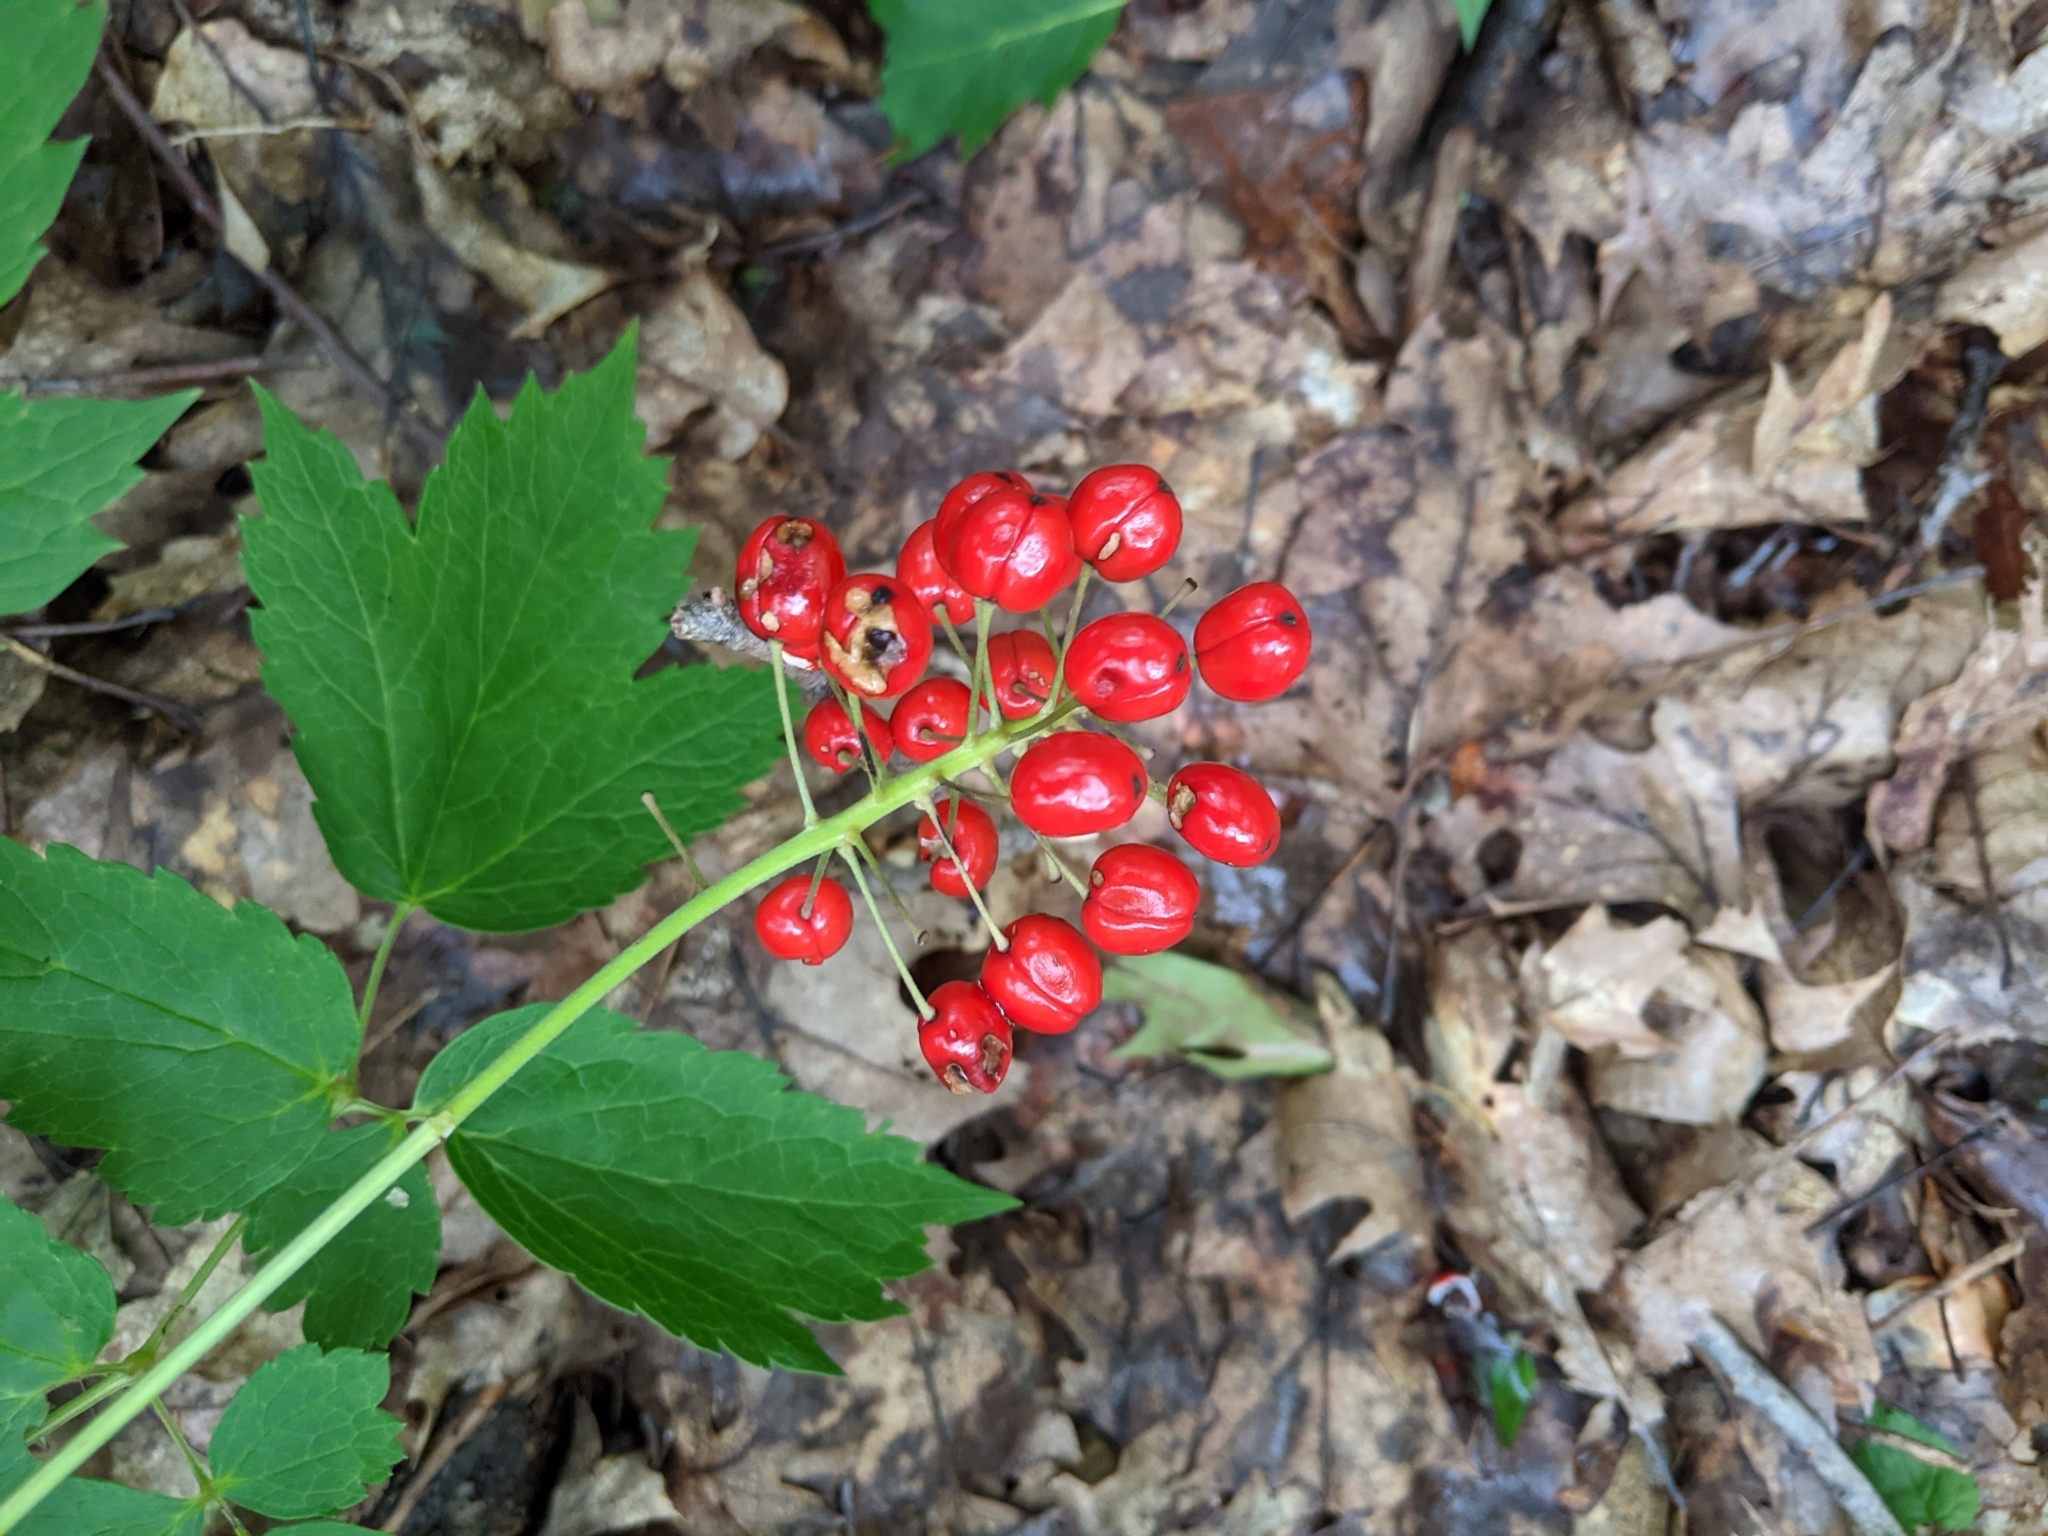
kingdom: Plantae
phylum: Tracheophyta
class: Magnoliopsida
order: Ranunculales
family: Ranunculaceae
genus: Actaea
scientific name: Actaea rubra
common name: Red baneberry
